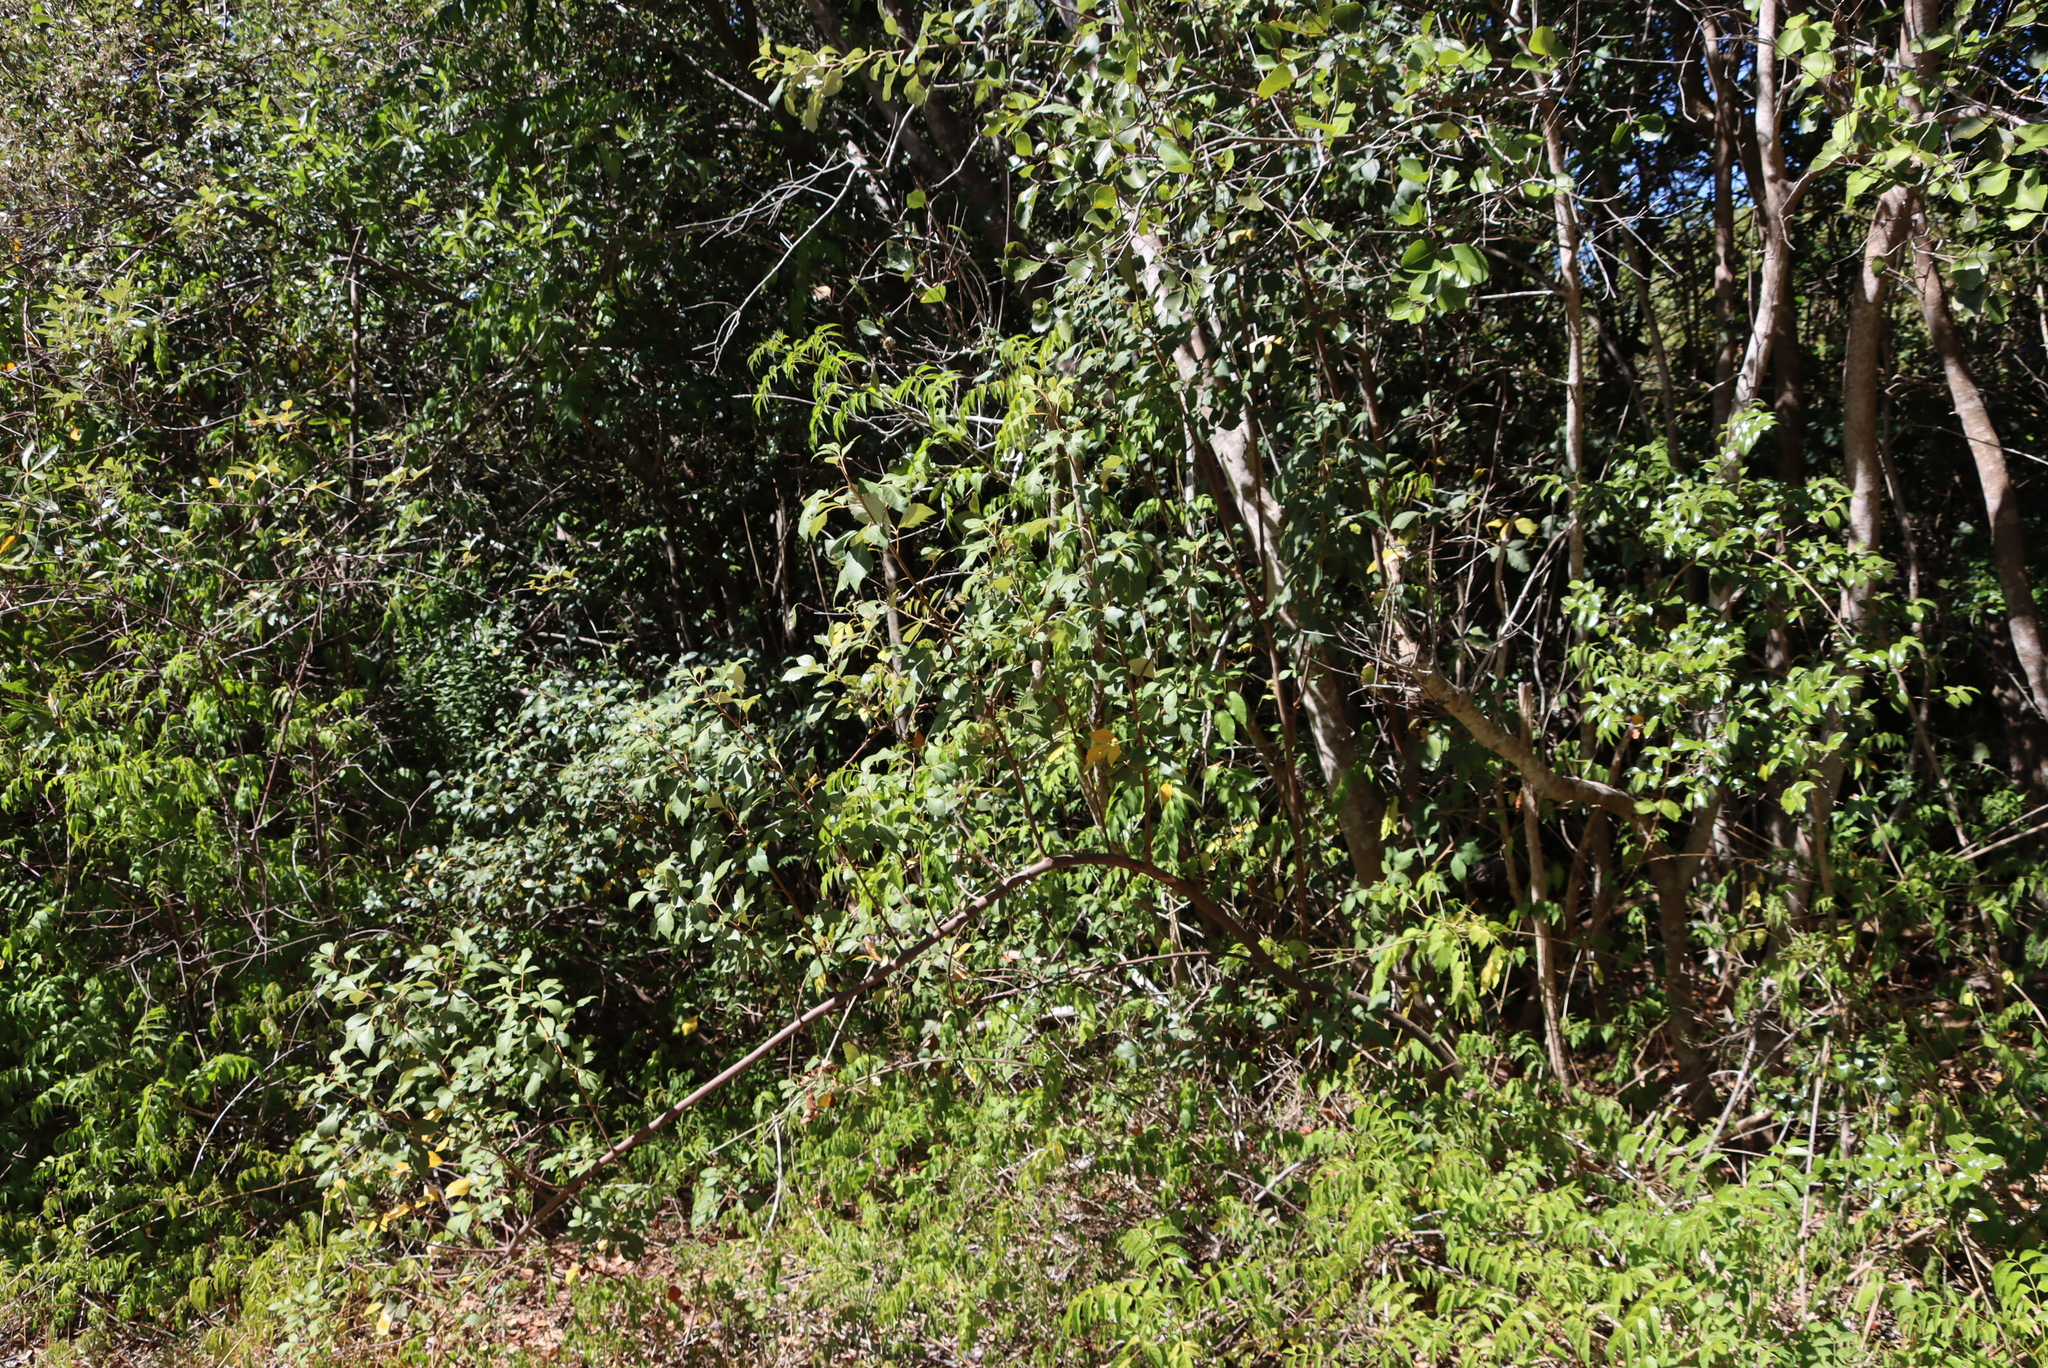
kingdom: Plantae
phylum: Tracheophyta
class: Magnoliopsida
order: Sapindales
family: Anacardiaceae
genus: Searsia
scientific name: Searsia tomentosa
